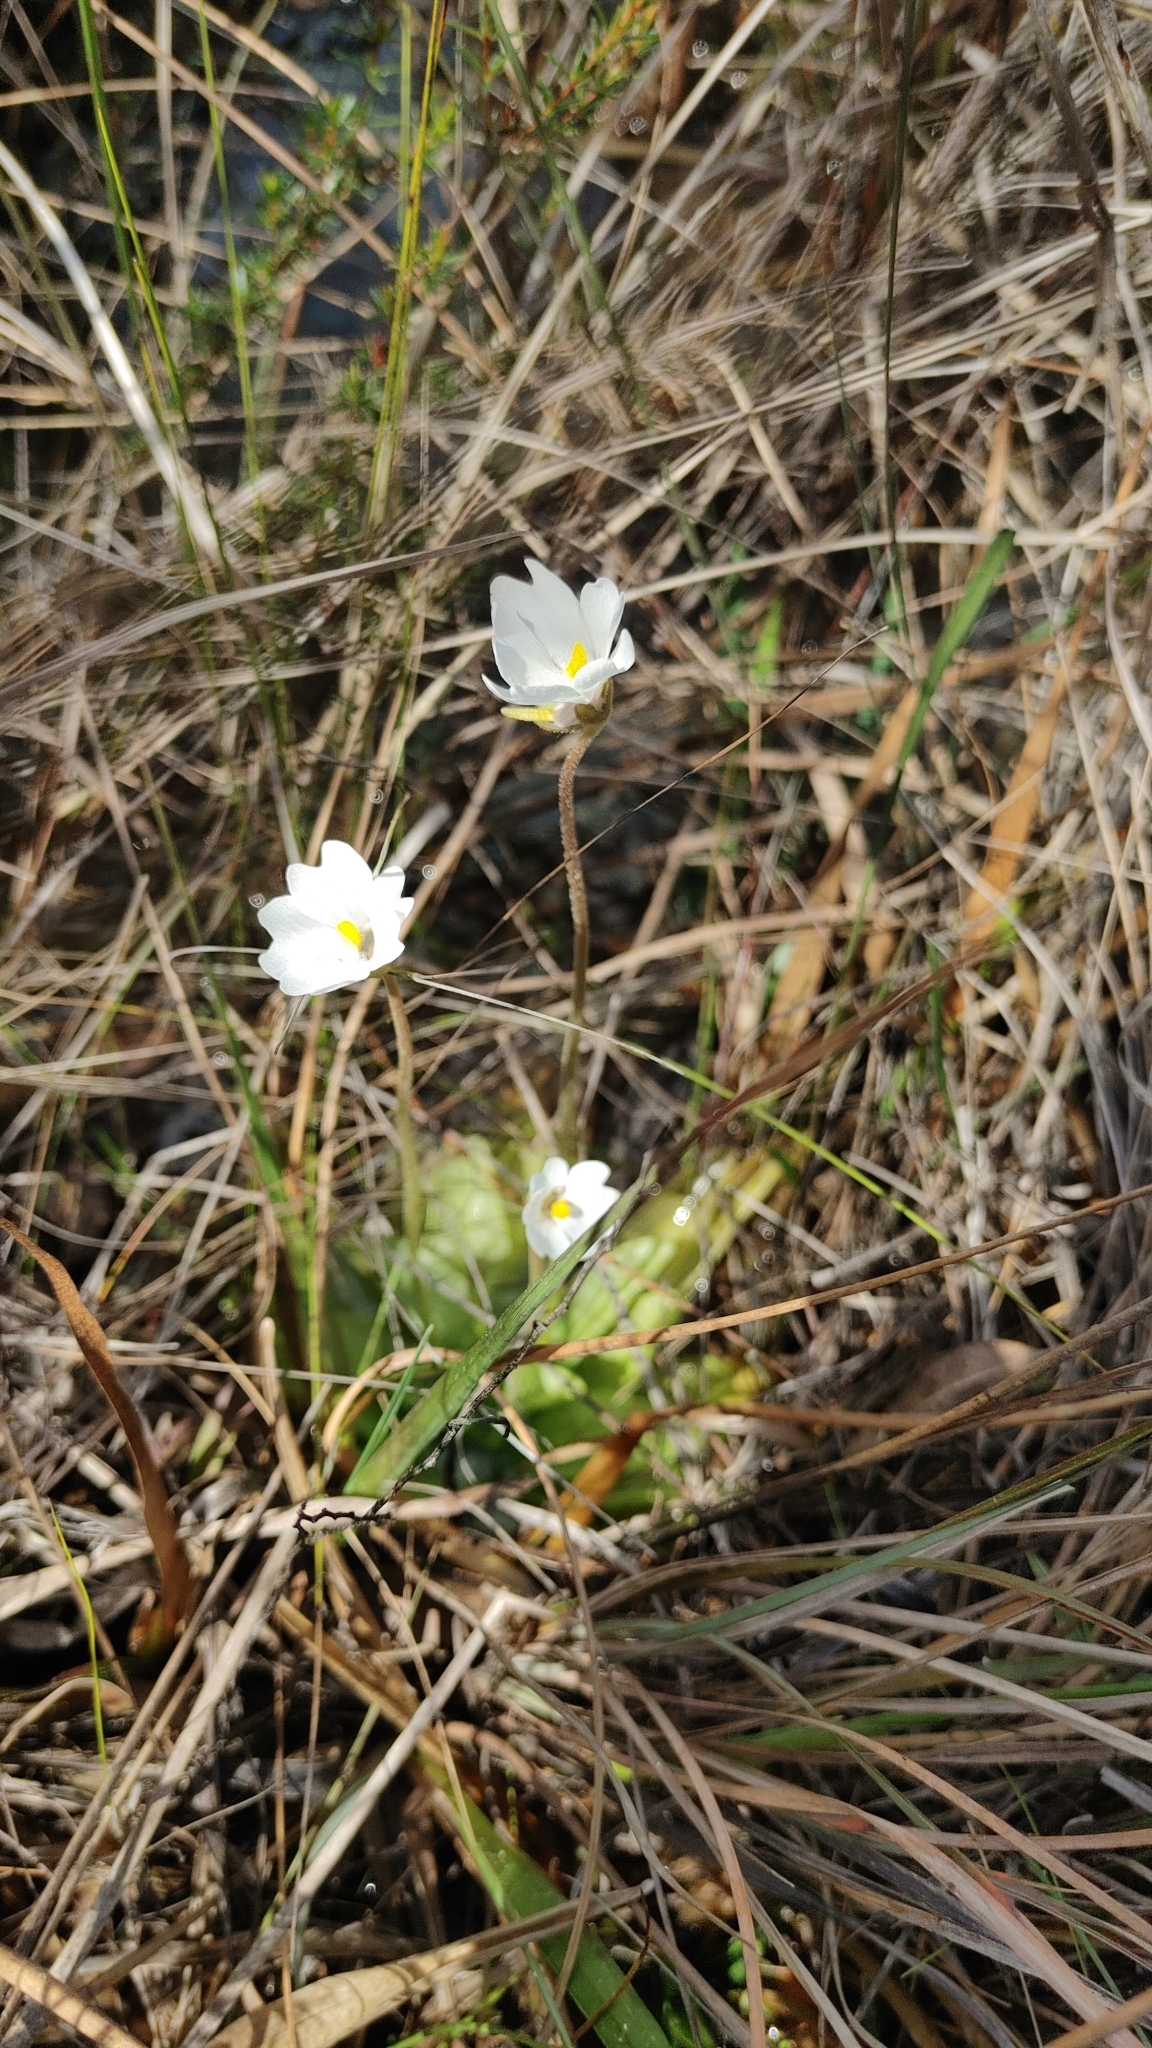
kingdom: Plantae
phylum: Tracheophyta
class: Magnoliopsida
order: Lamiales
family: Lentibulariaceae
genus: Pinguicula
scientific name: Pinguicula ionantha
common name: Godfrey's butterwort
